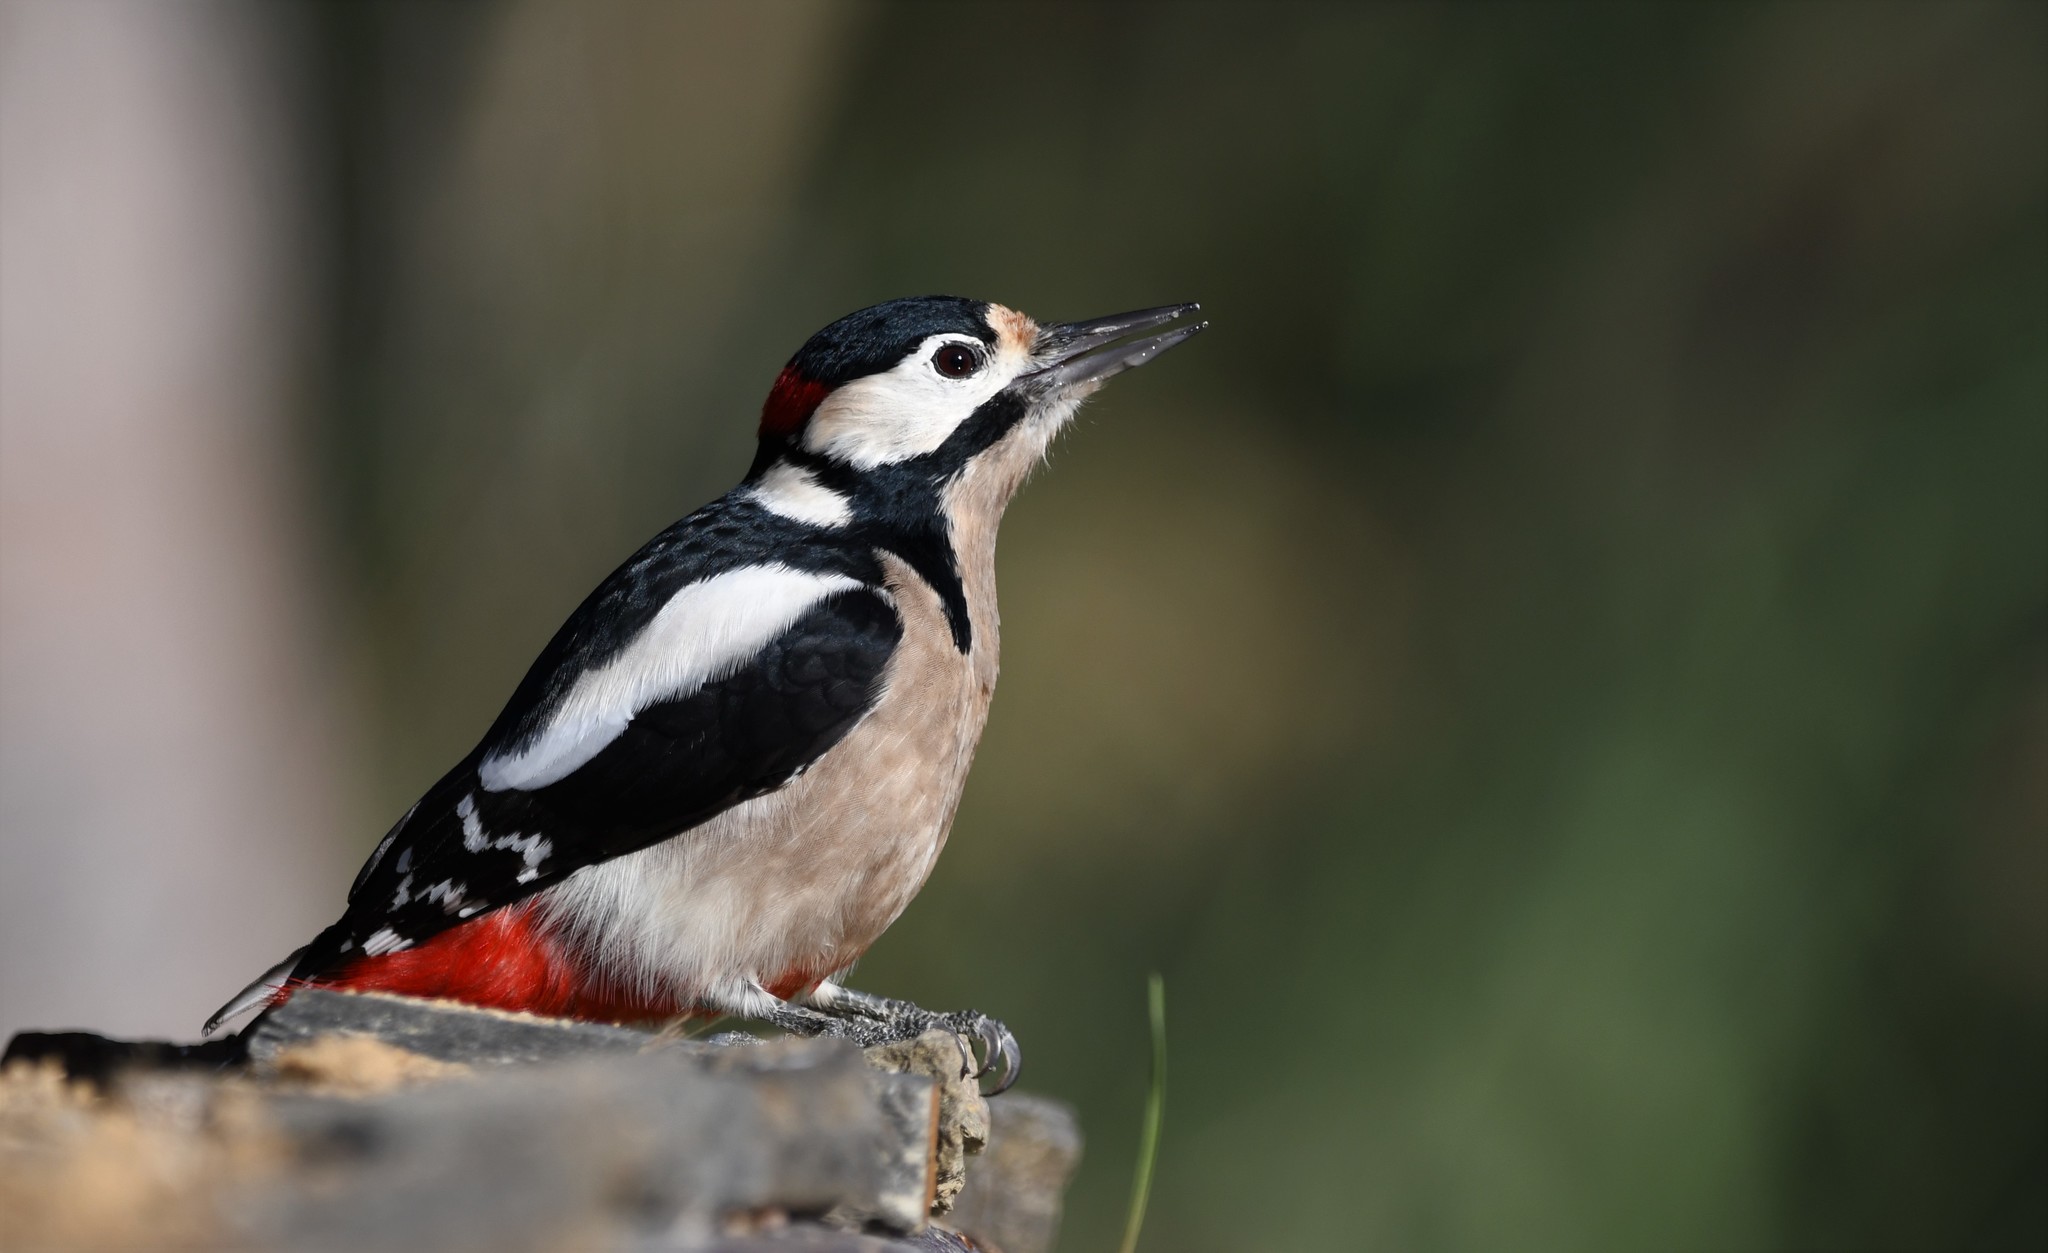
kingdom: Animalia
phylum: Chordata
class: Aves
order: Piciformes
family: Picidae
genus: Dendrocopos
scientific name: Dendrocopos major
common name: Great spotted woodpecker
